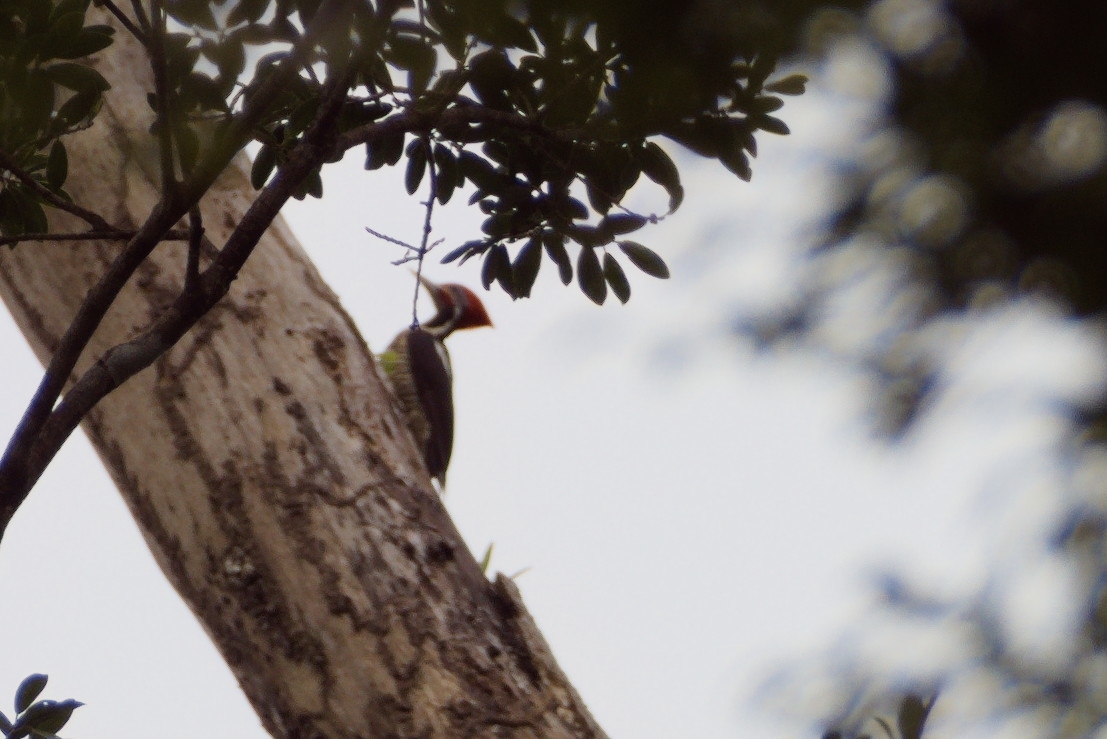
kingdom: Animalia
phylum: Chordata
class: Aves
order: Piciformes
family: Picidae
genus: Dryocopus
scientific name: Dryocopus lineatus
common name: Lineated woodpecker
